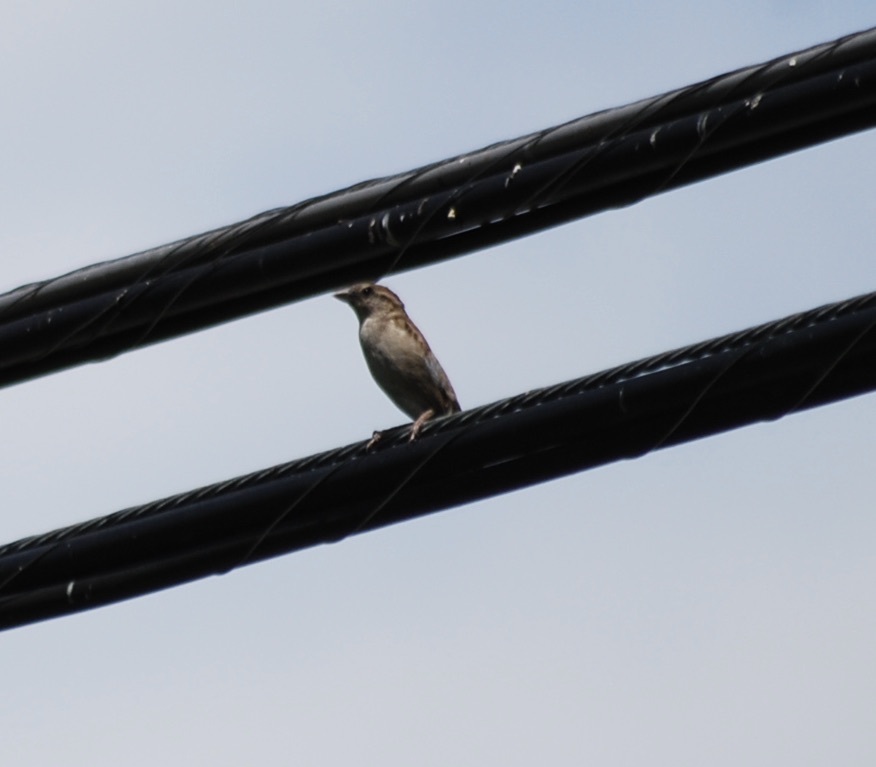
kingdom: Animalia
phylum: Chordata
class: Aves
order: Passeriformes
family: Passeridae
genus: Passer
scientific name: Passer domesticus
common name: House sparrow
